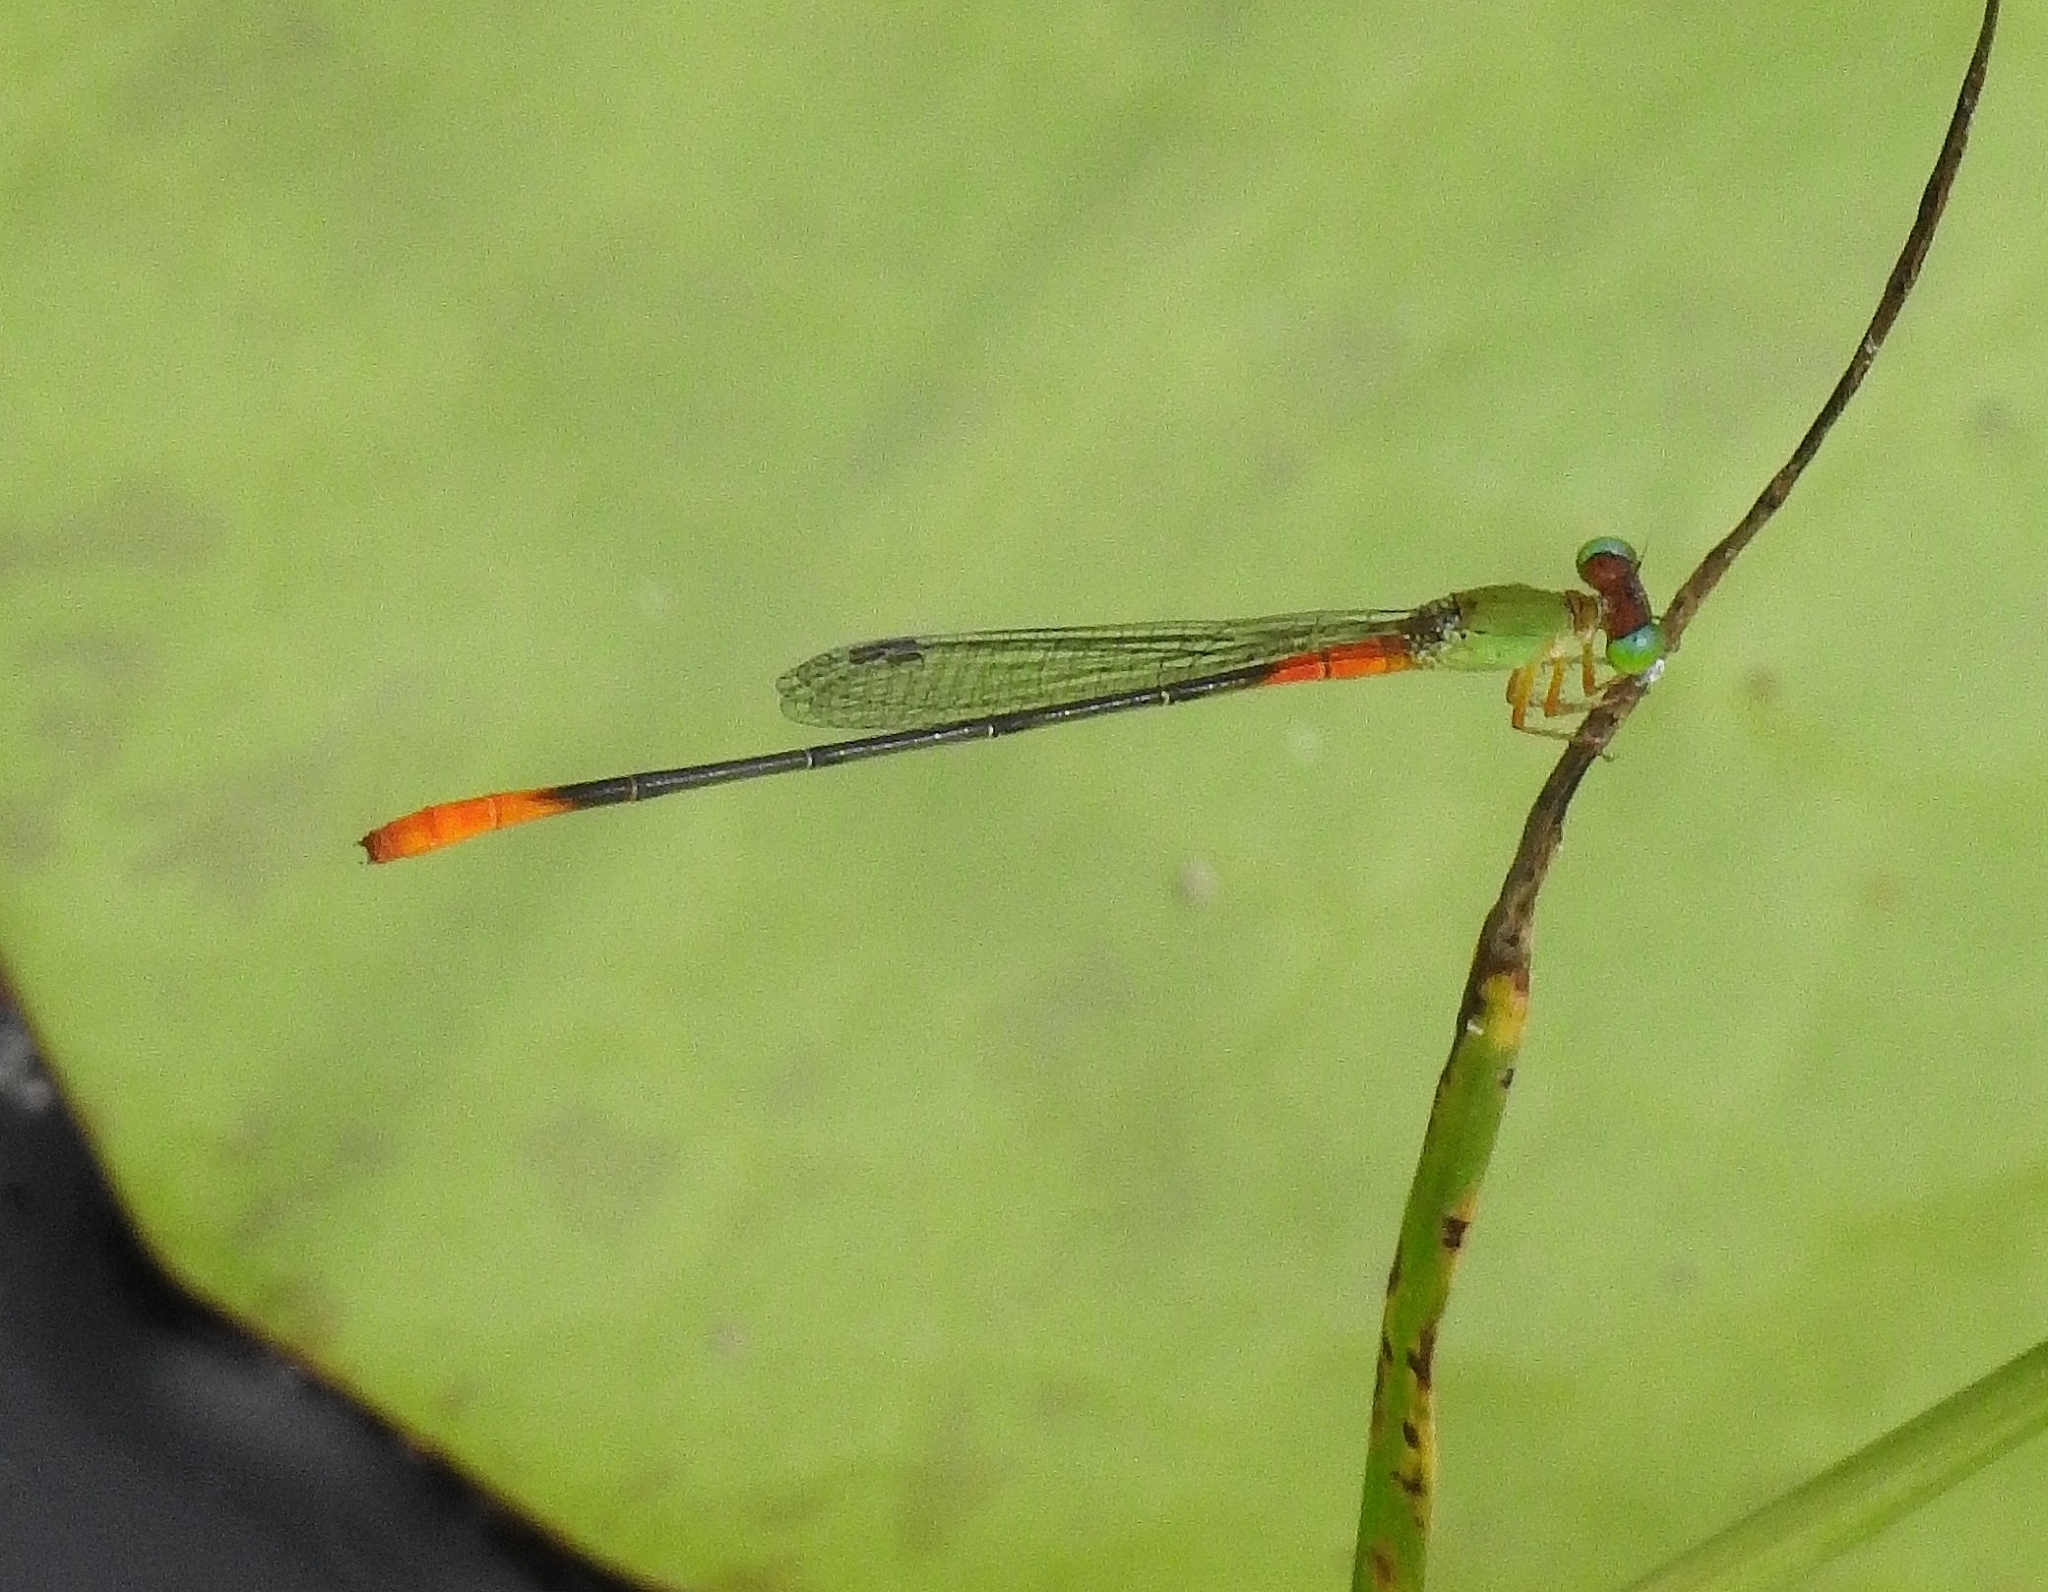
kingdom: Animalia
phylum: Arthropoda
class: Insecta
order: Odonata
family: Coenagrionidae
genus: Ceriagrion
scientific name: Ceriagrion cerinorubellum
